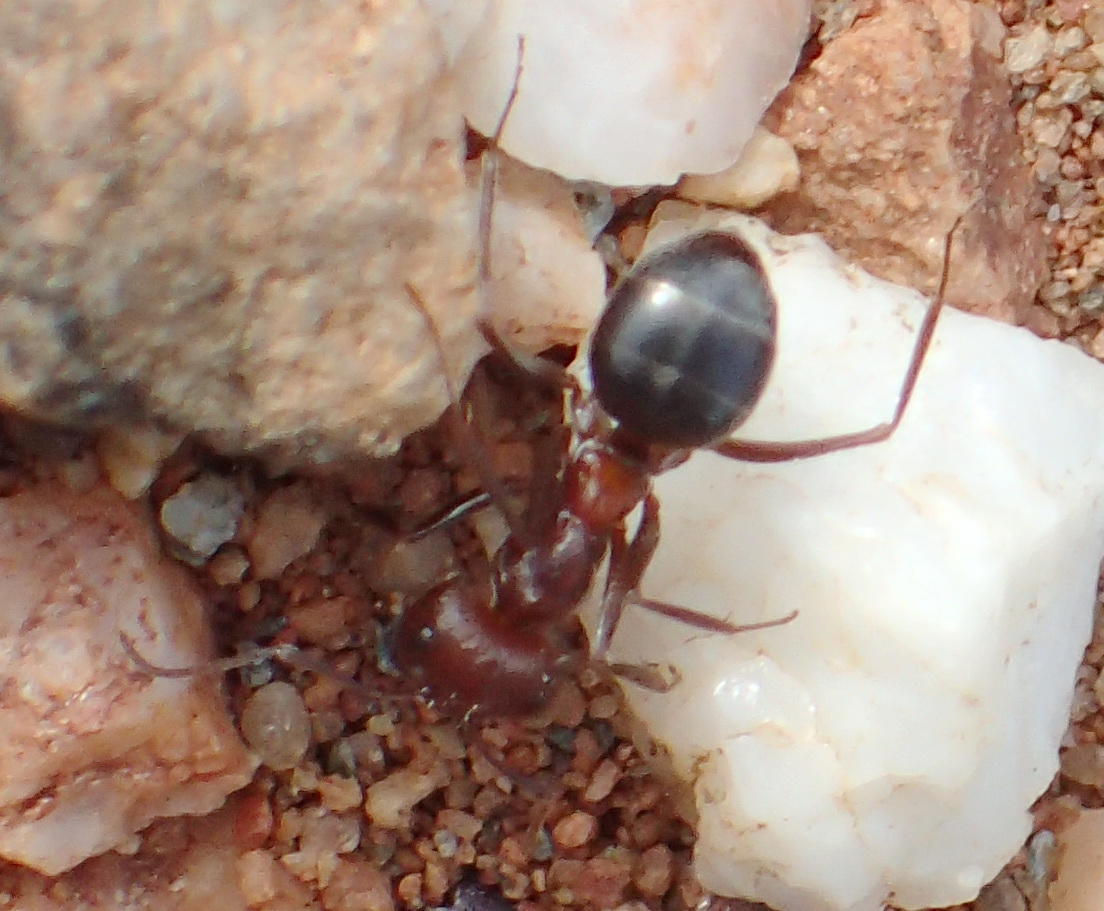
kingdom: Animalia
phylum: Arthropoda
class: Insecta
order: Hymenoptera
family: Formicidae
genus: Anoplolepis
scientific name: Anoplolepis steingroeveri
